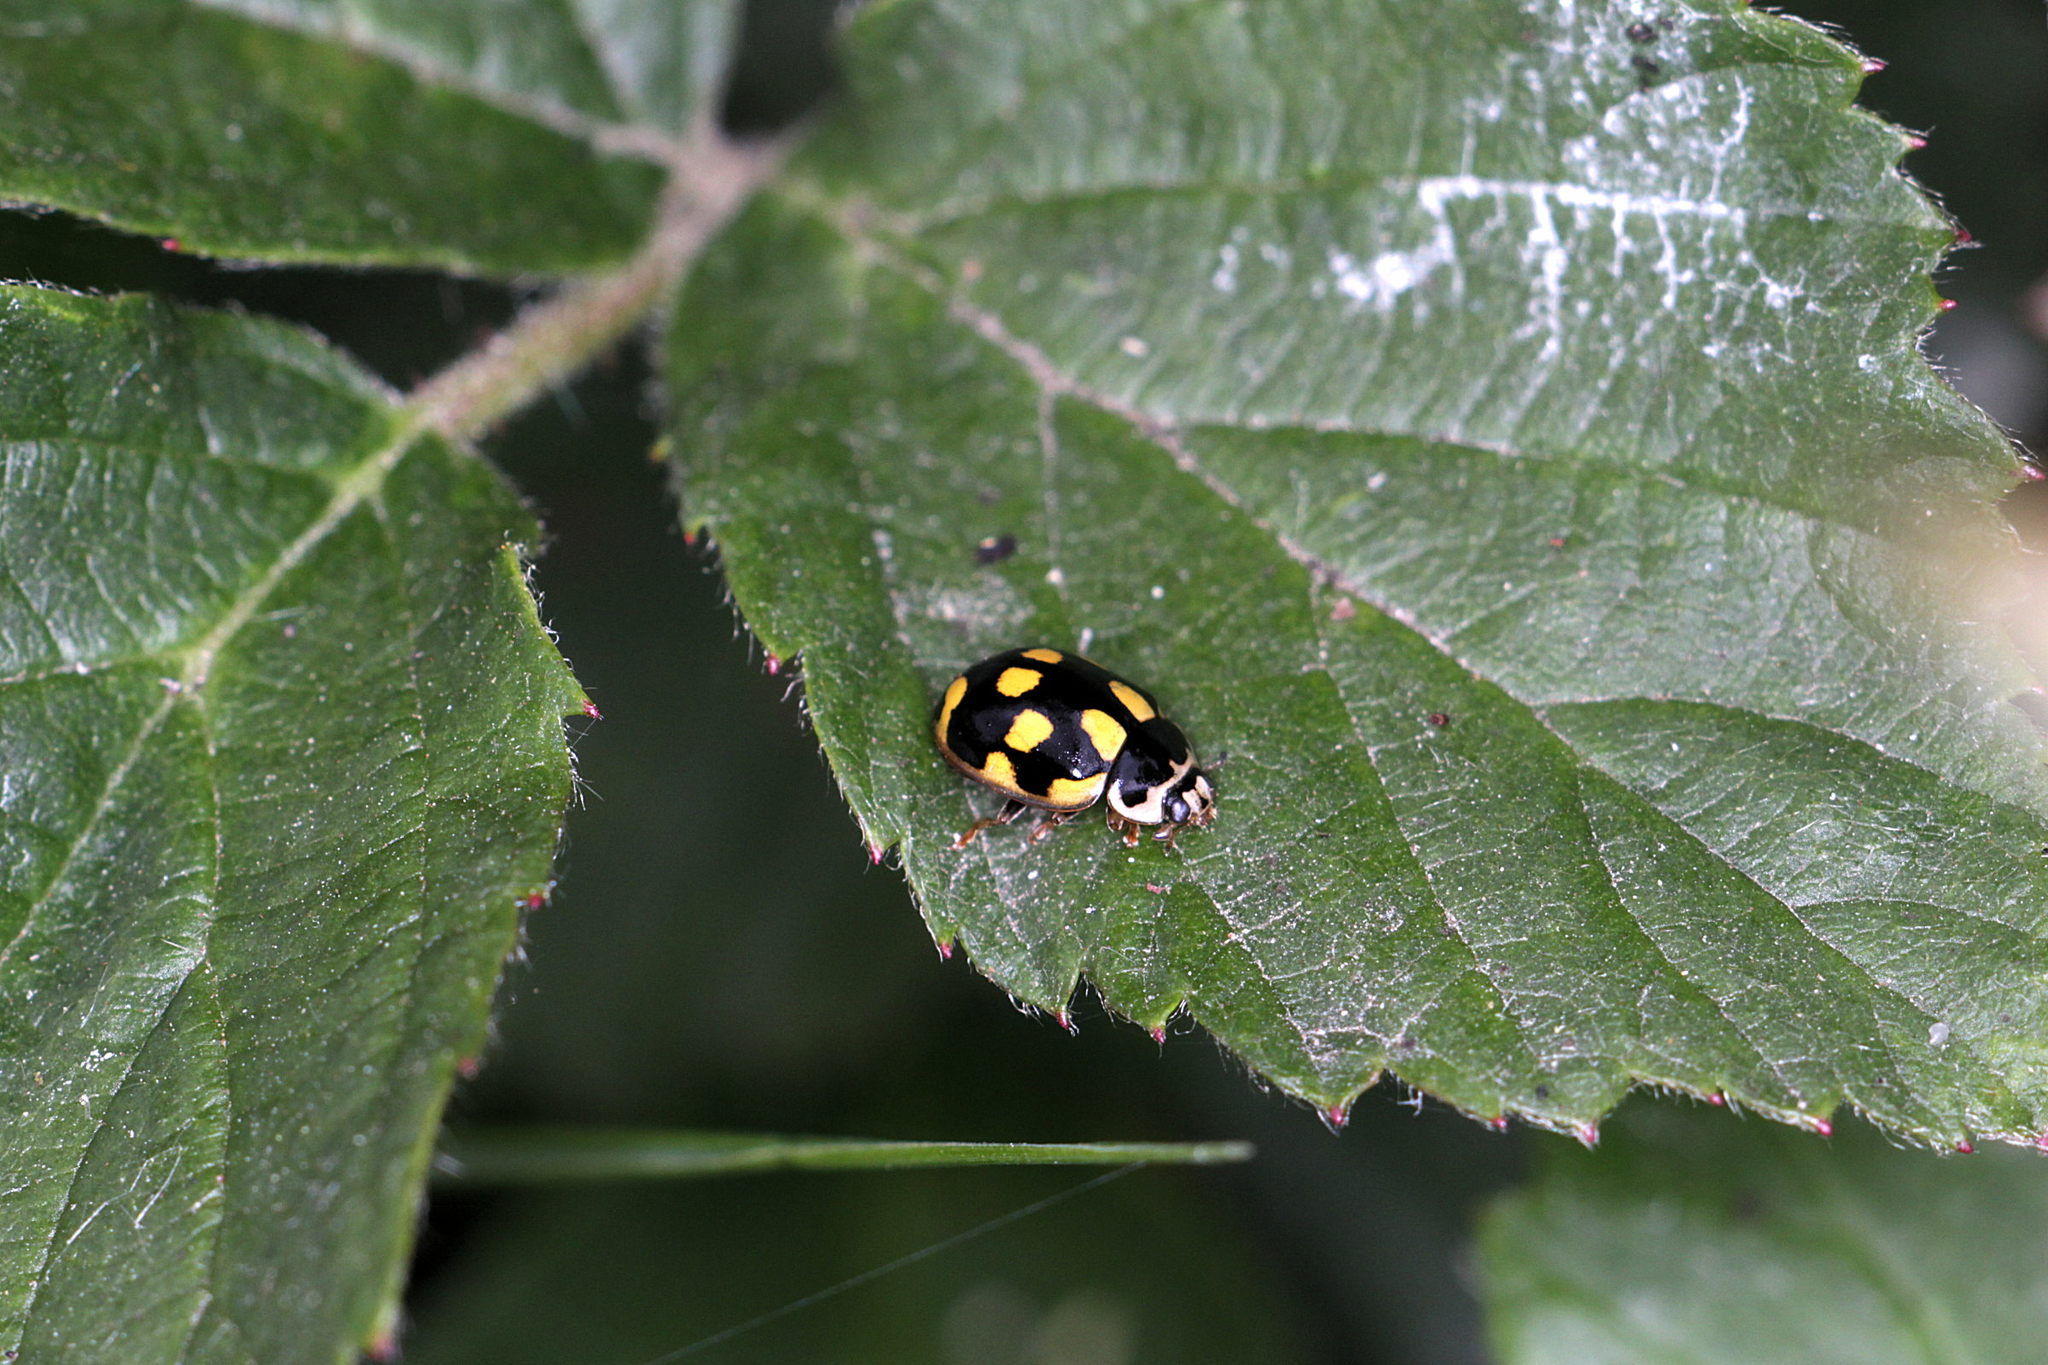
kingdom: Animalia
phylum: Arthropoda
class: Insecta
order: Coleoptera
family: Coccinellidae
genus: Propylaea
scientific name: Propylaea quatuordecimpunctata
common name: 14-spotted ladybird beetle
